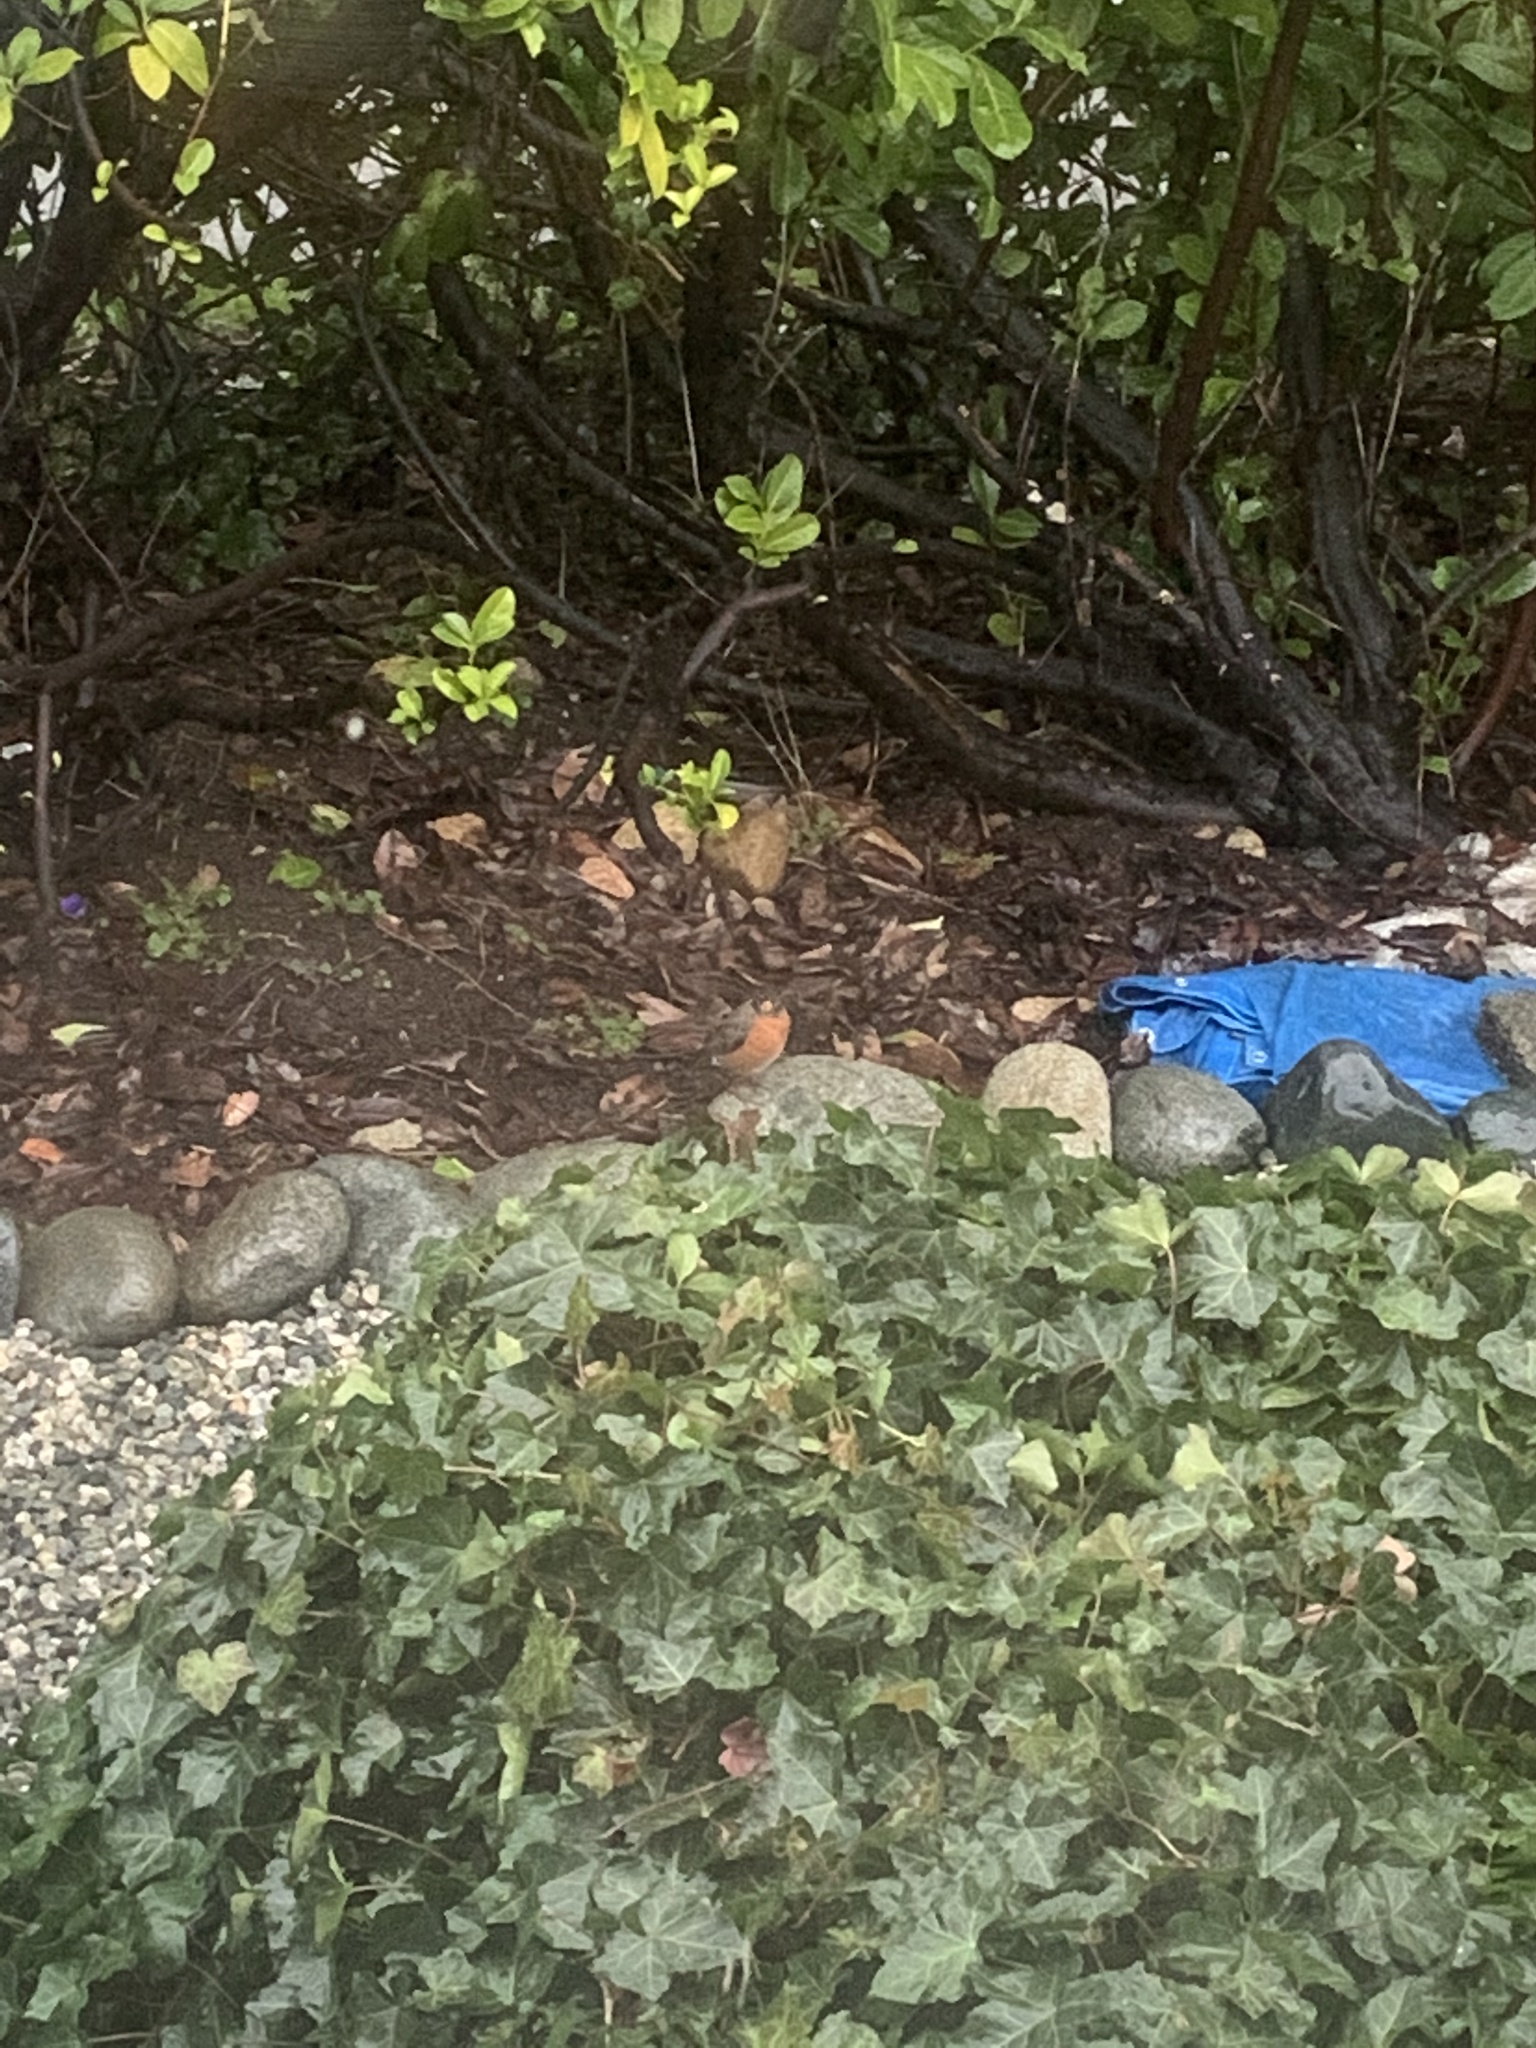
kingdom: Animalia
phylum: Chordata
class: Aves
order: Passeriformes
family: Turdidae
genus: Turdus
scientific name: Turdus migratorius
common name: American robin
